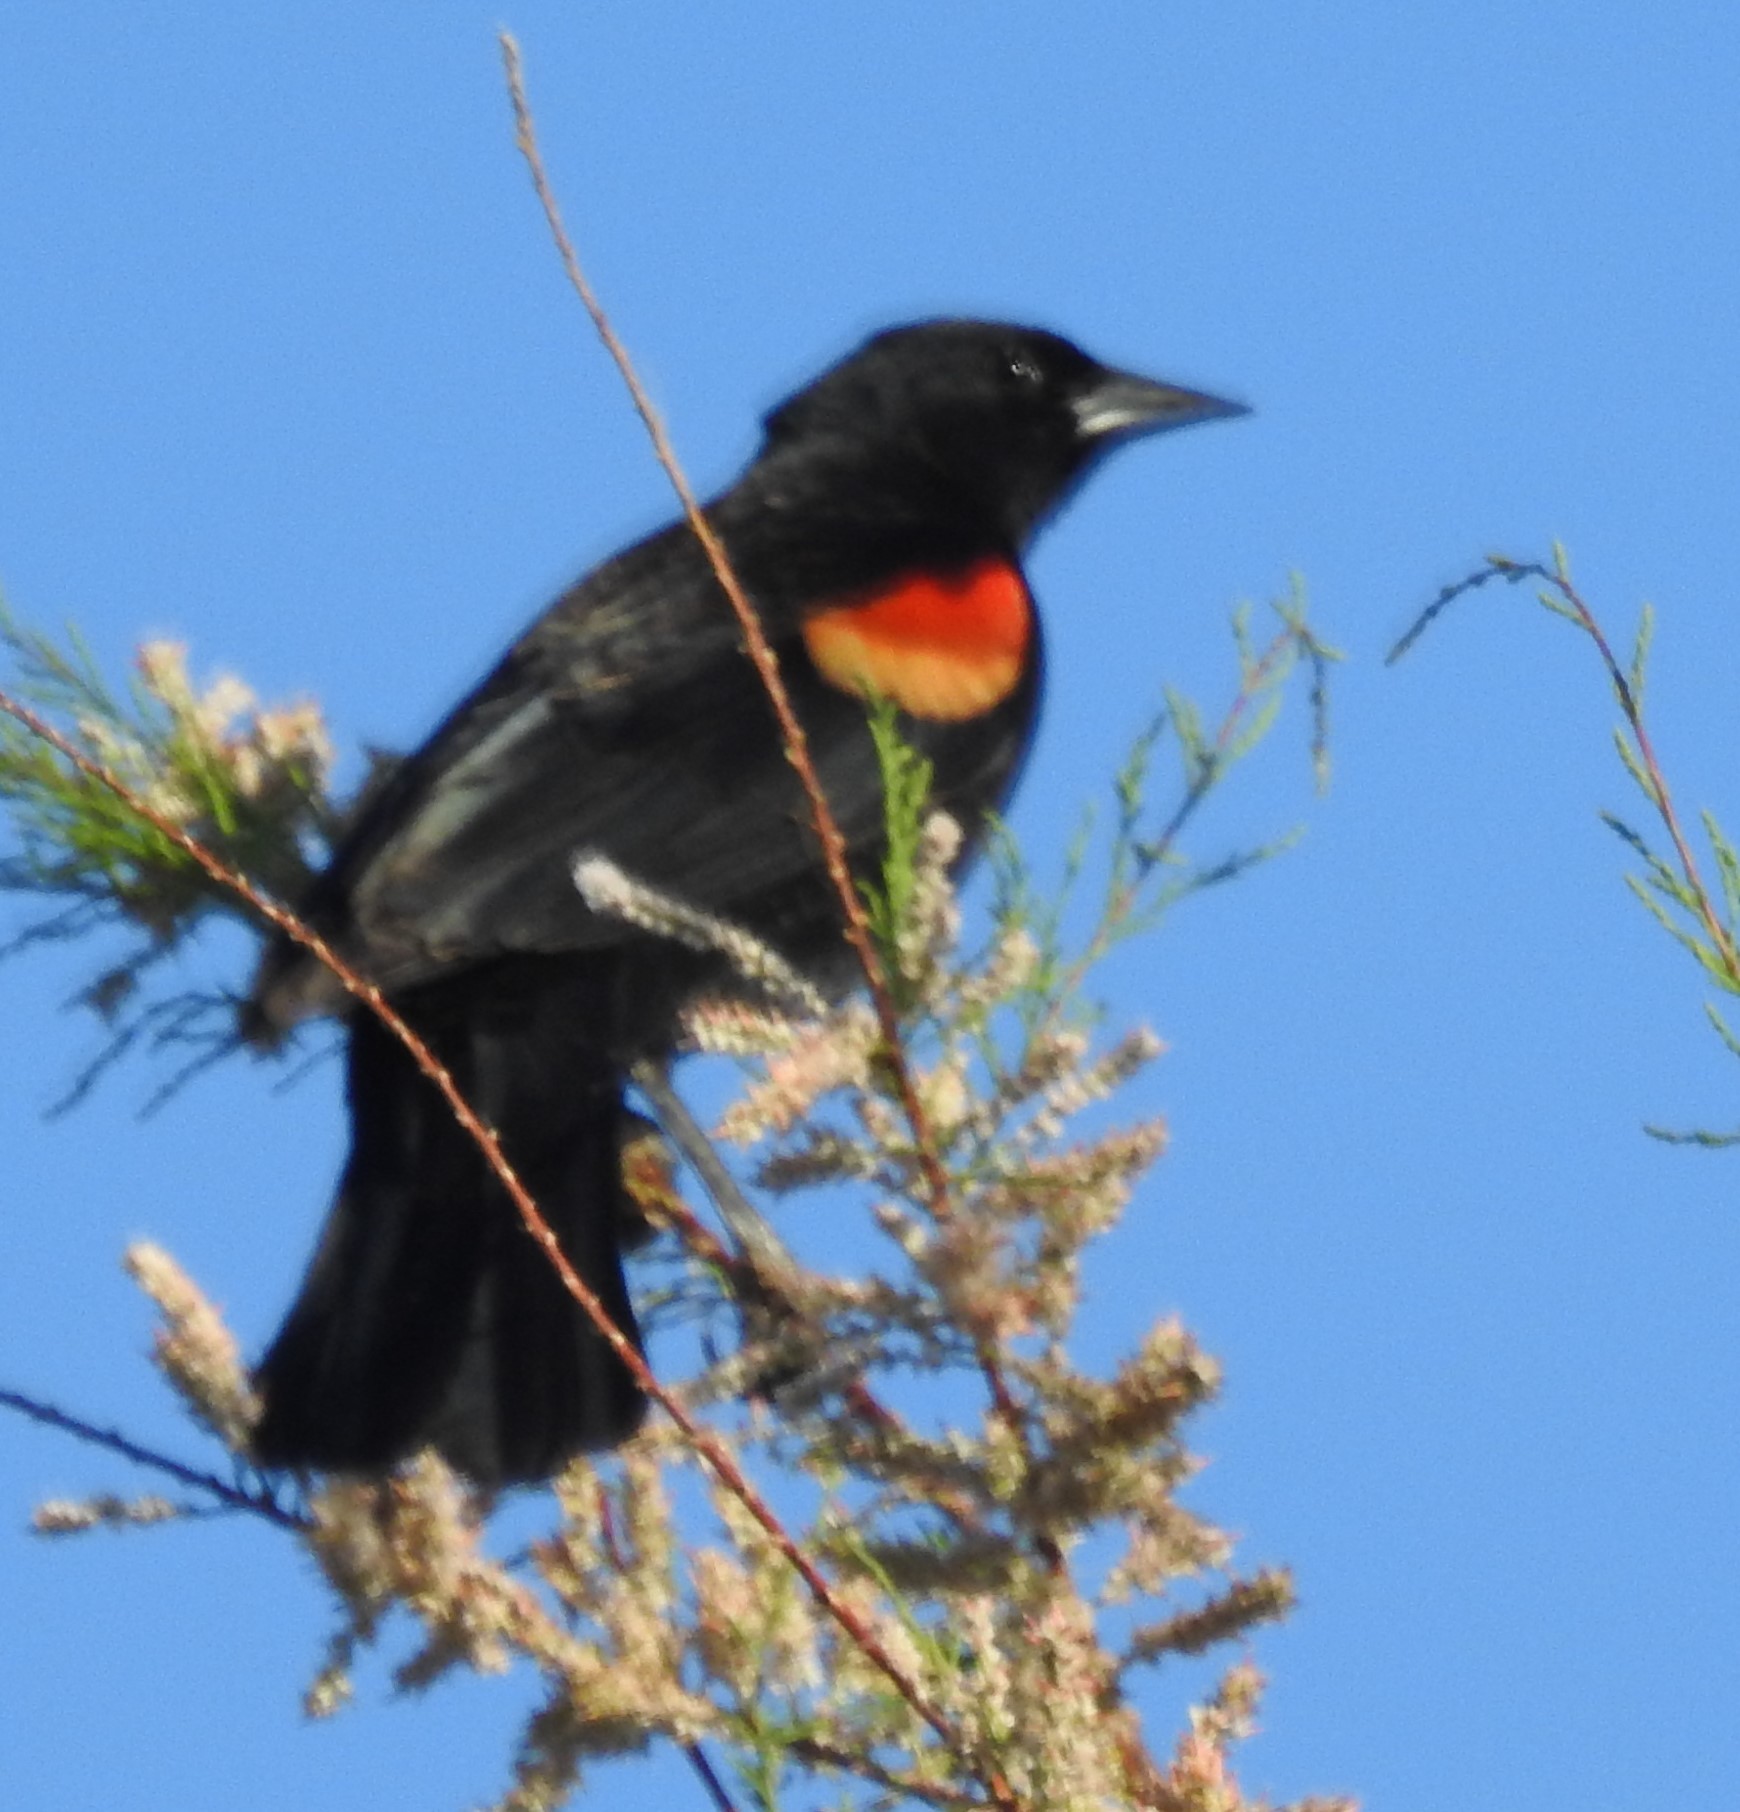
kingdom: Animalia
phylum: Chordata
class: Aves
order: Passeriformes
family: Icteridae
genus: Agelaius
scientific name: Agelaius phoeniceus
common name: Red-winged blackbird
